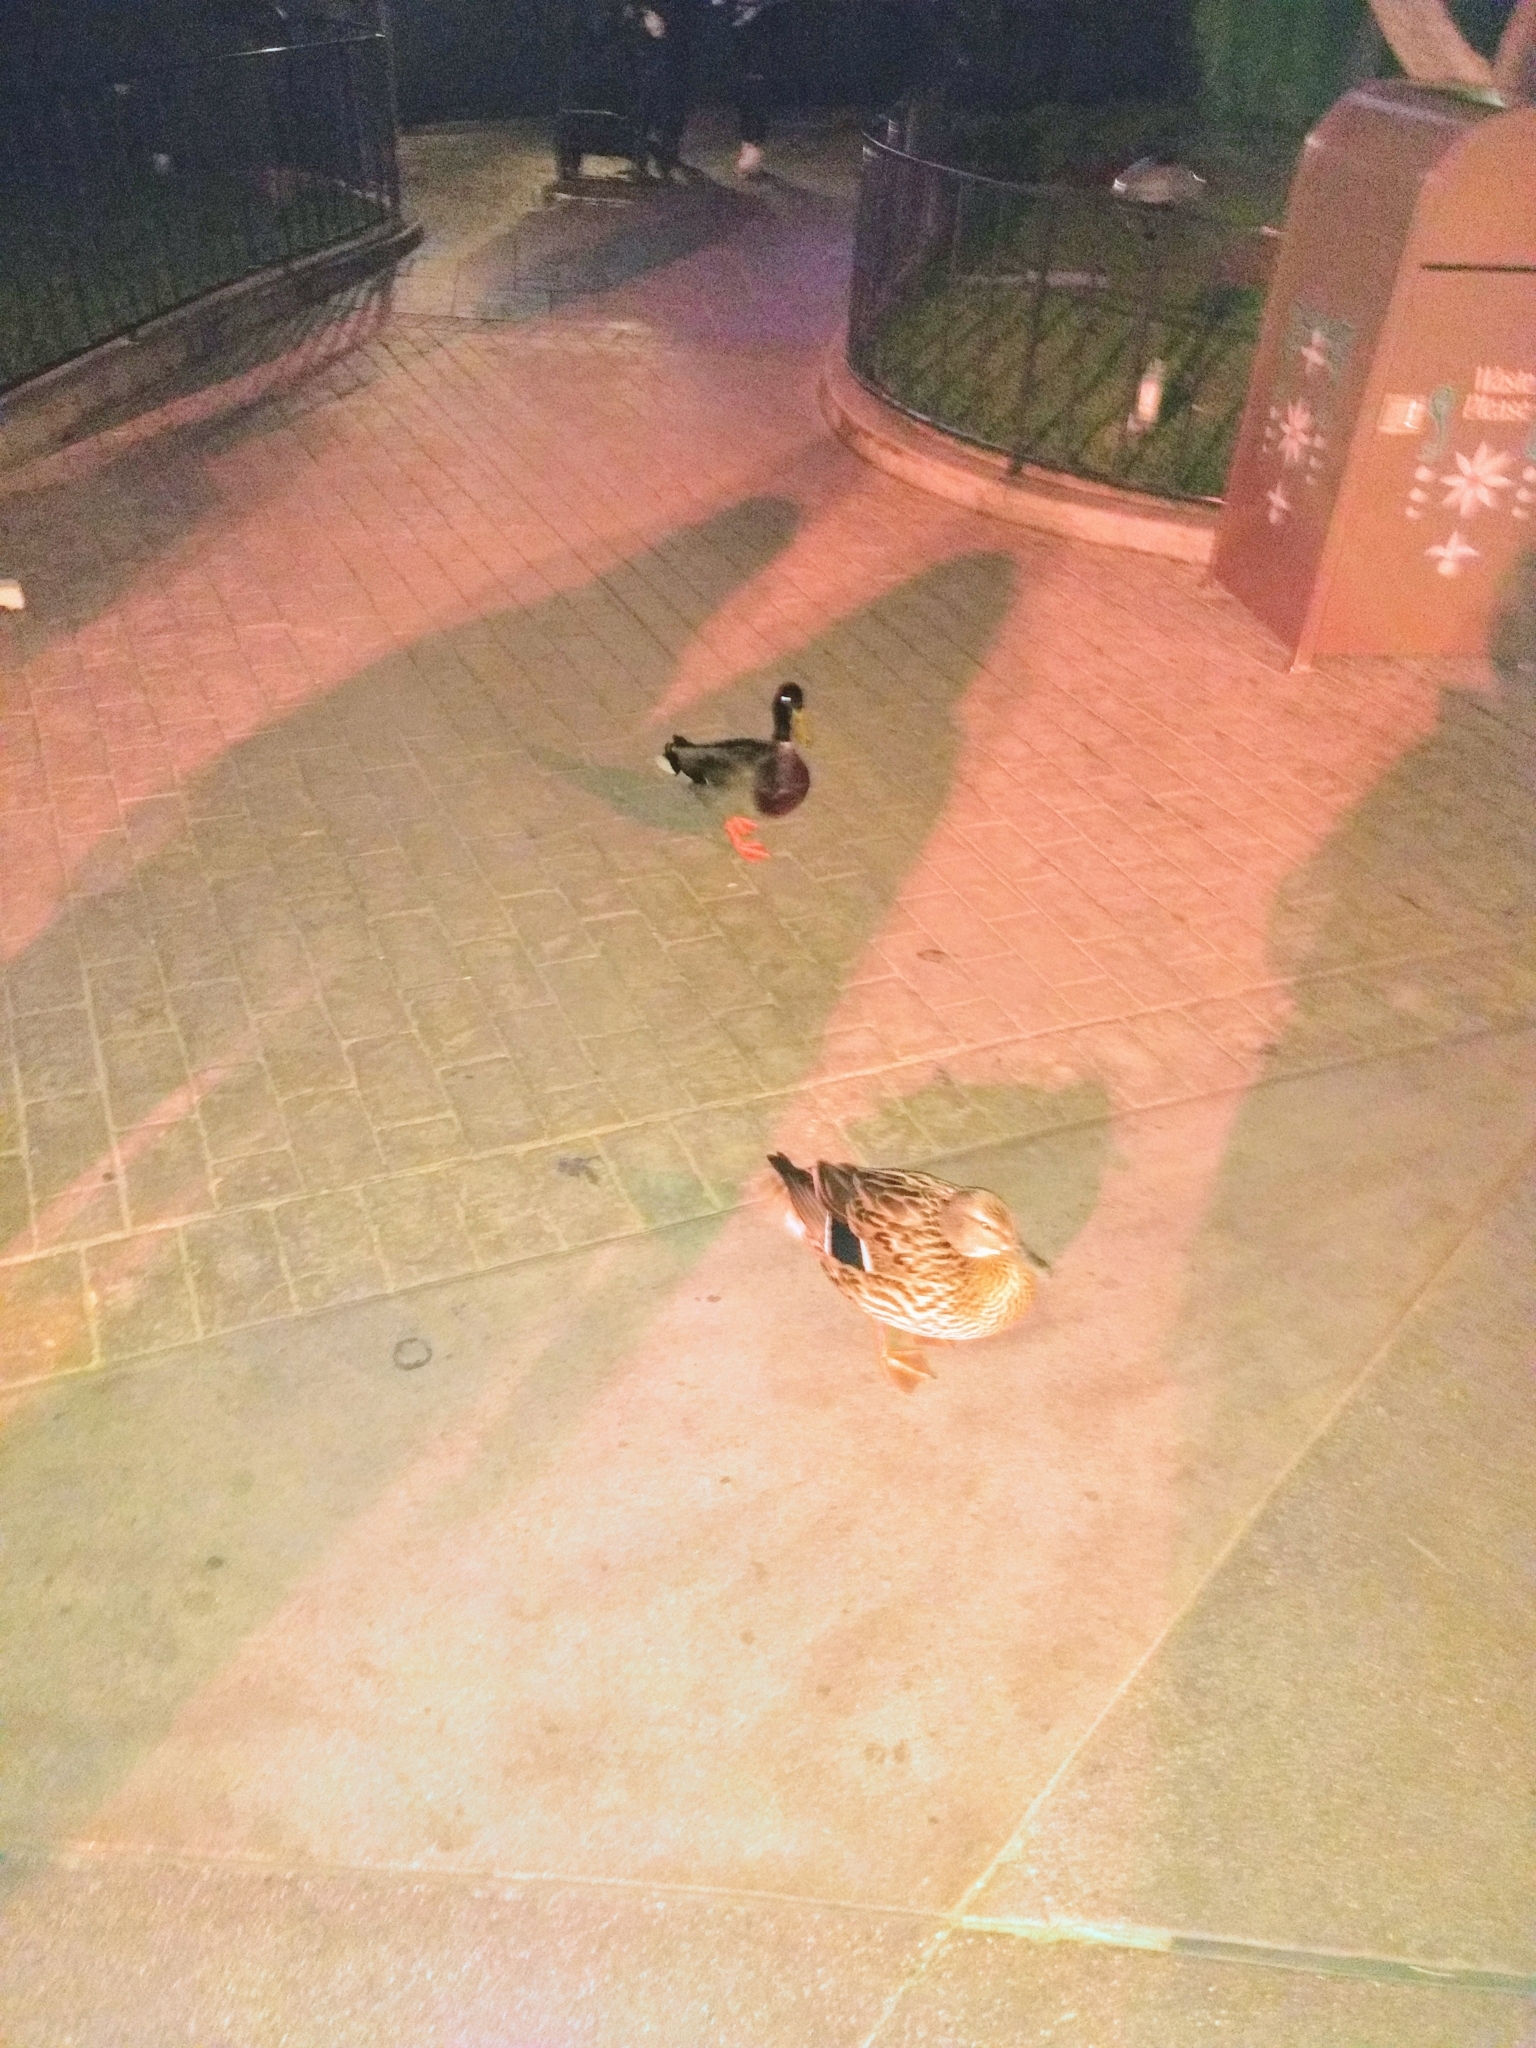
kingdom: Animalia
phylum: Chordata
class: Aves
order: Anseriformes
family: Anatidae
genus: Anas
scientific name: Anas platyrhynchos
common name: Mallard
